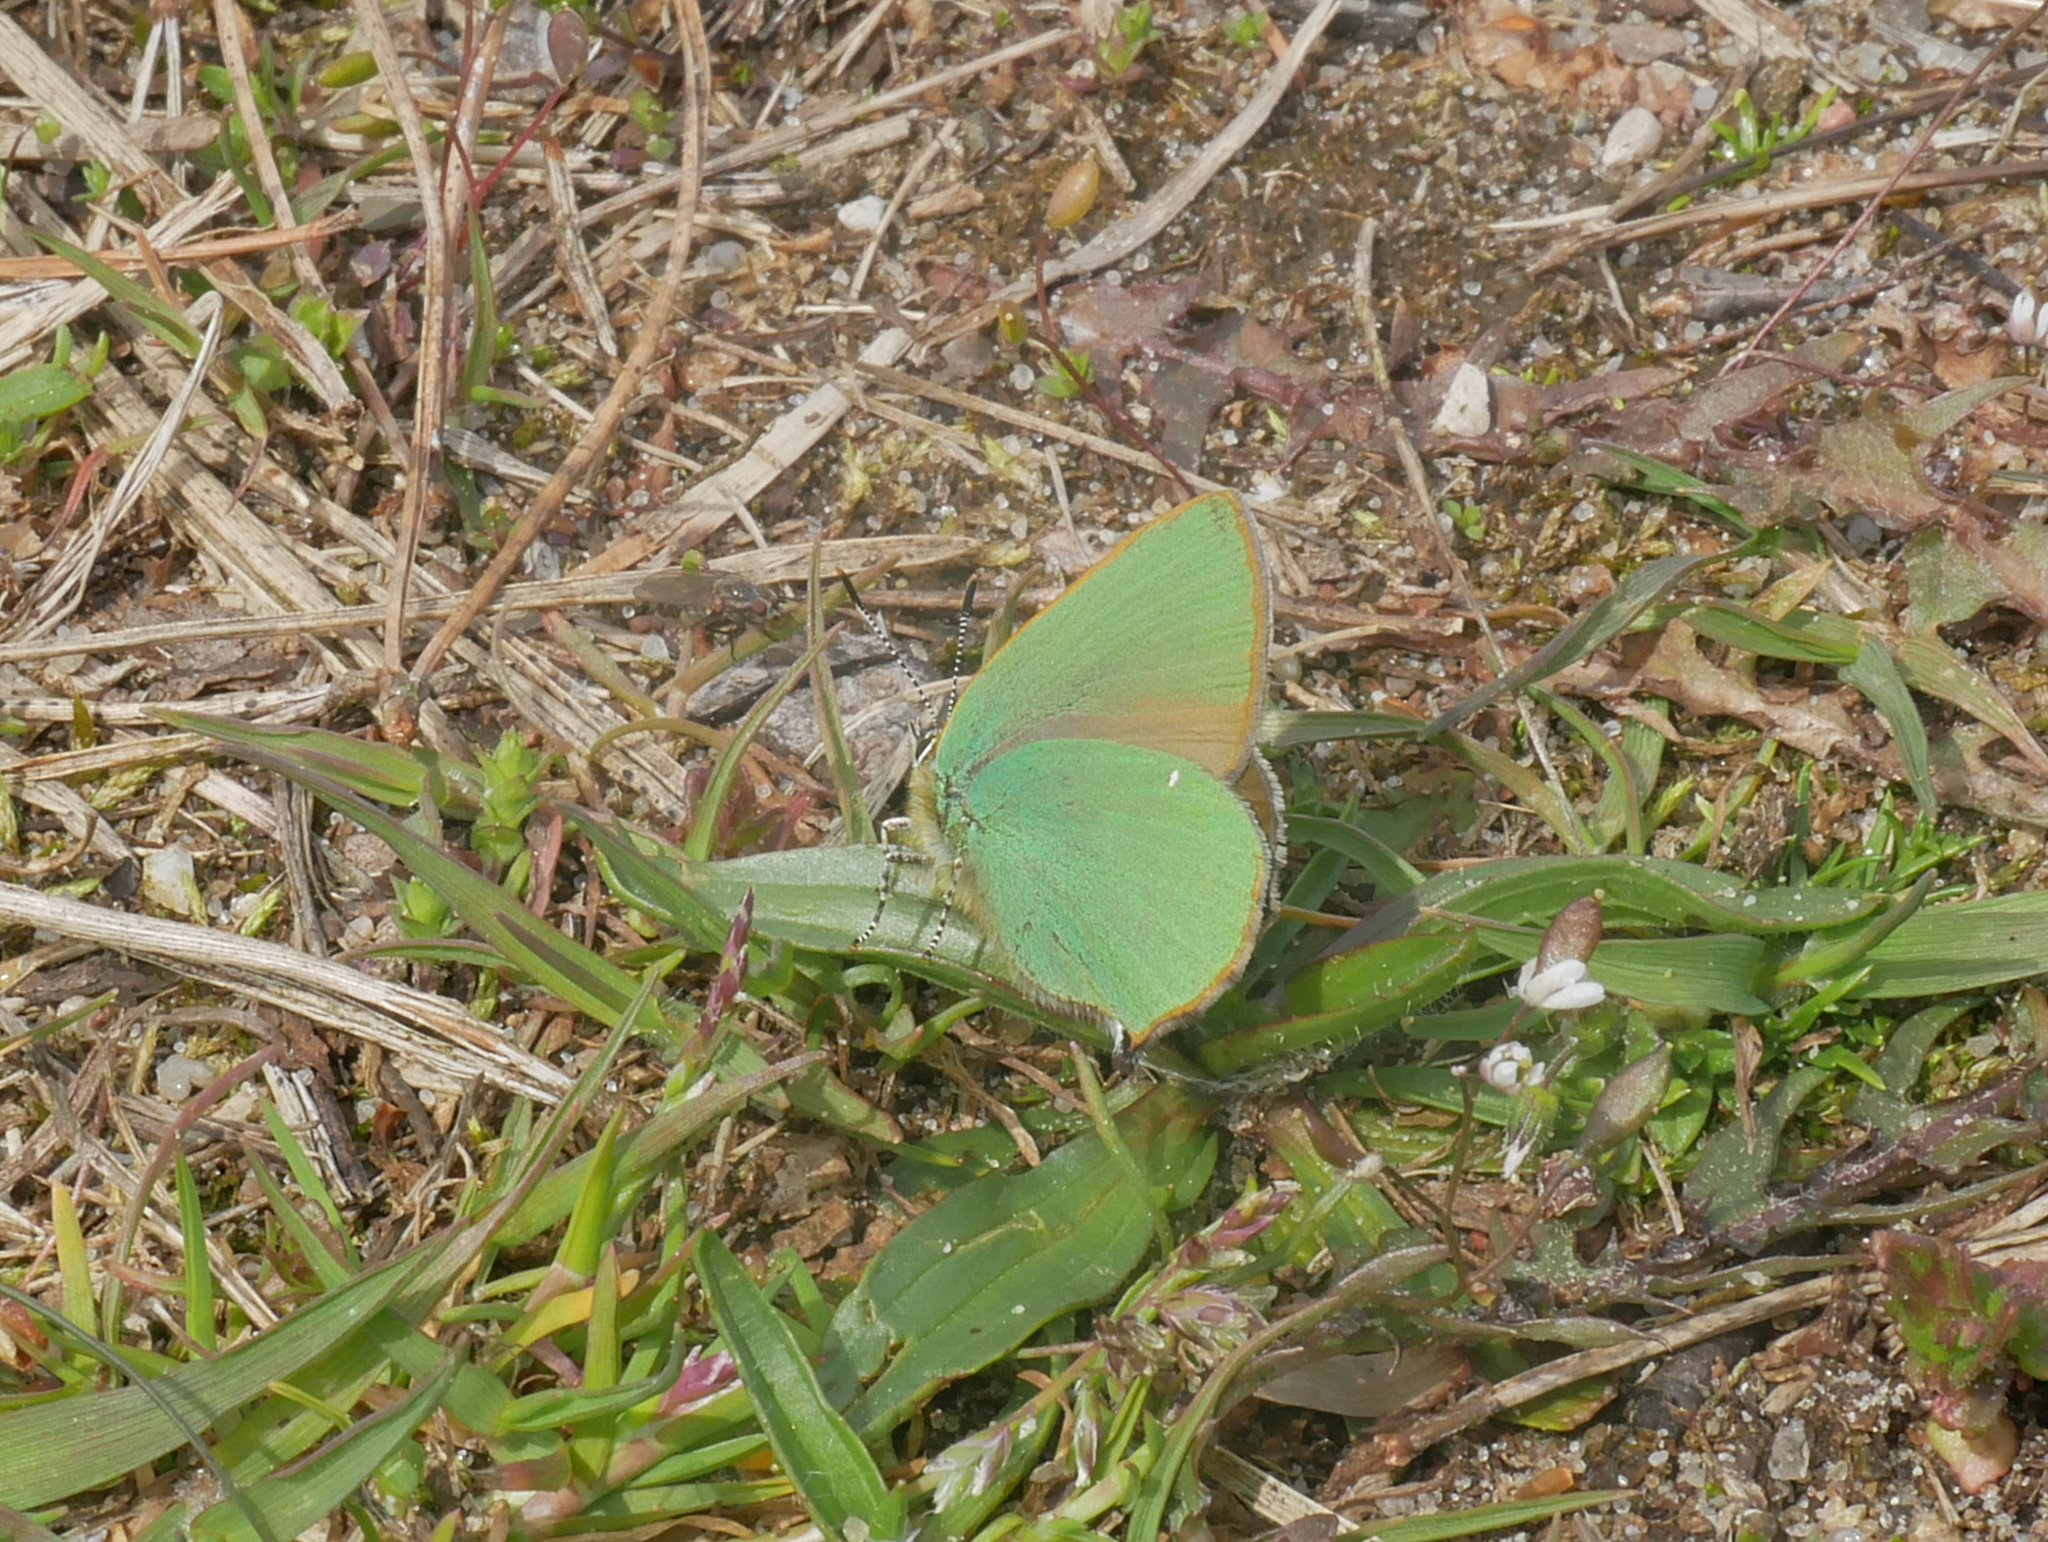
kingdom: Animalia
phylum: Arthropoda
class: Insecta
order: Lepidoptera
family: Lycaenidae
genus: Callophrys
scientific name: Callophrys rubi
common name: Green hairstreak
